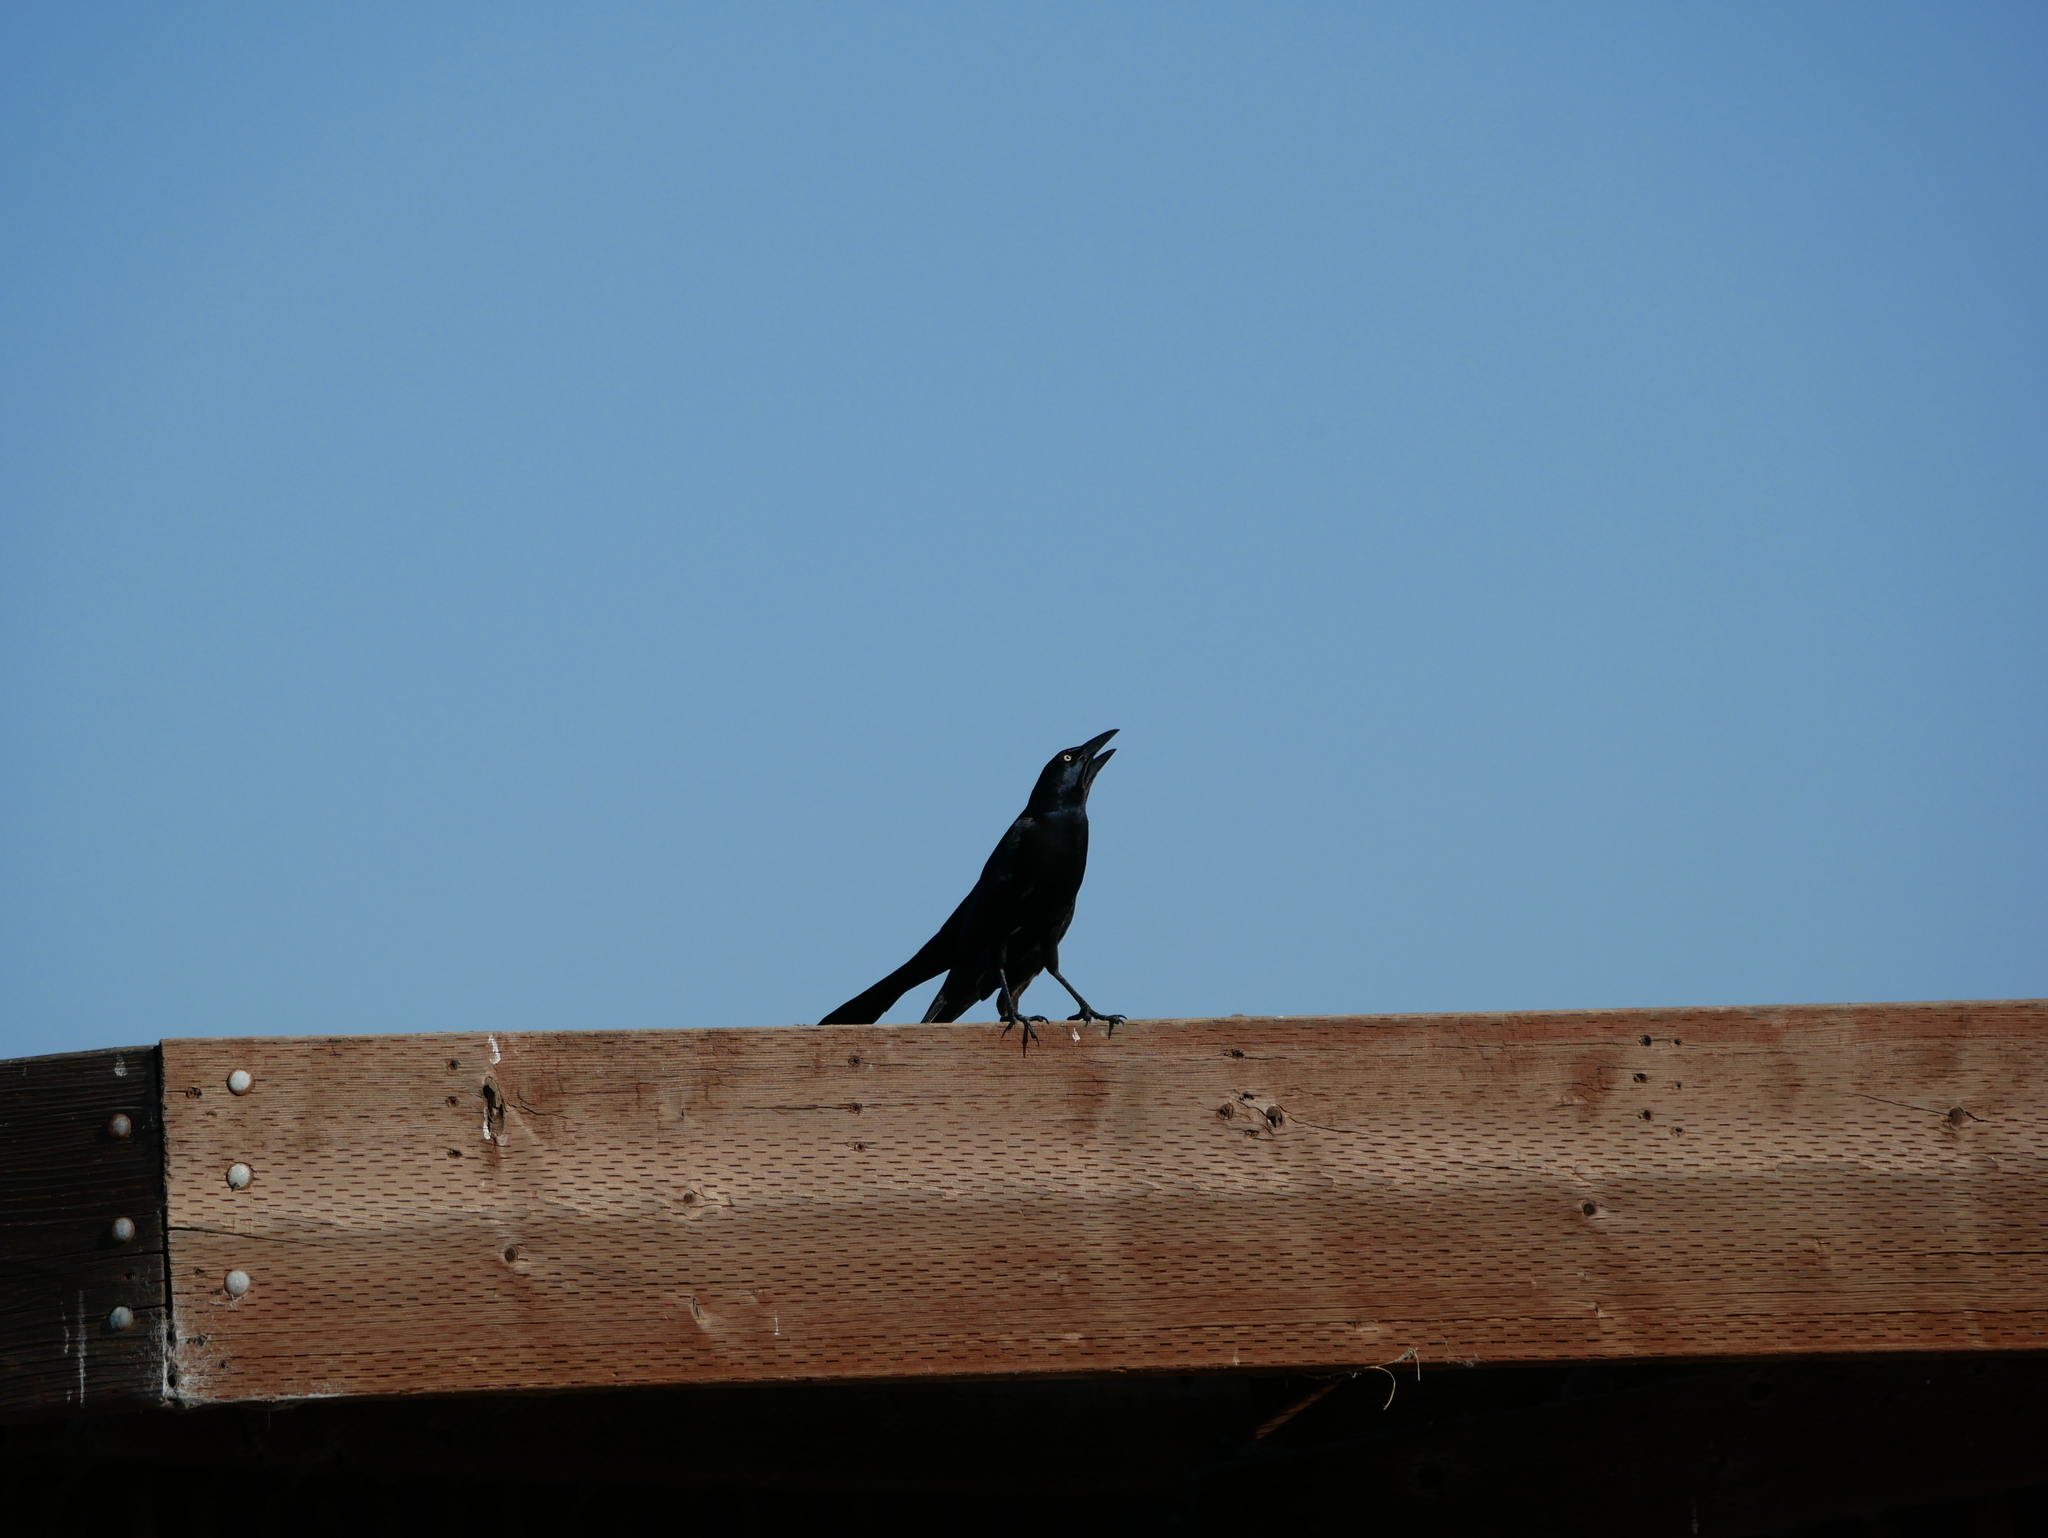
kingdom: Animalia
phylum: Chordata
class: Aves
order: Passeriformes
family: Icteridae
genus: Quiscalus
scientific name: Quiscalus mexicanus
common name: Great-tailed grackle
